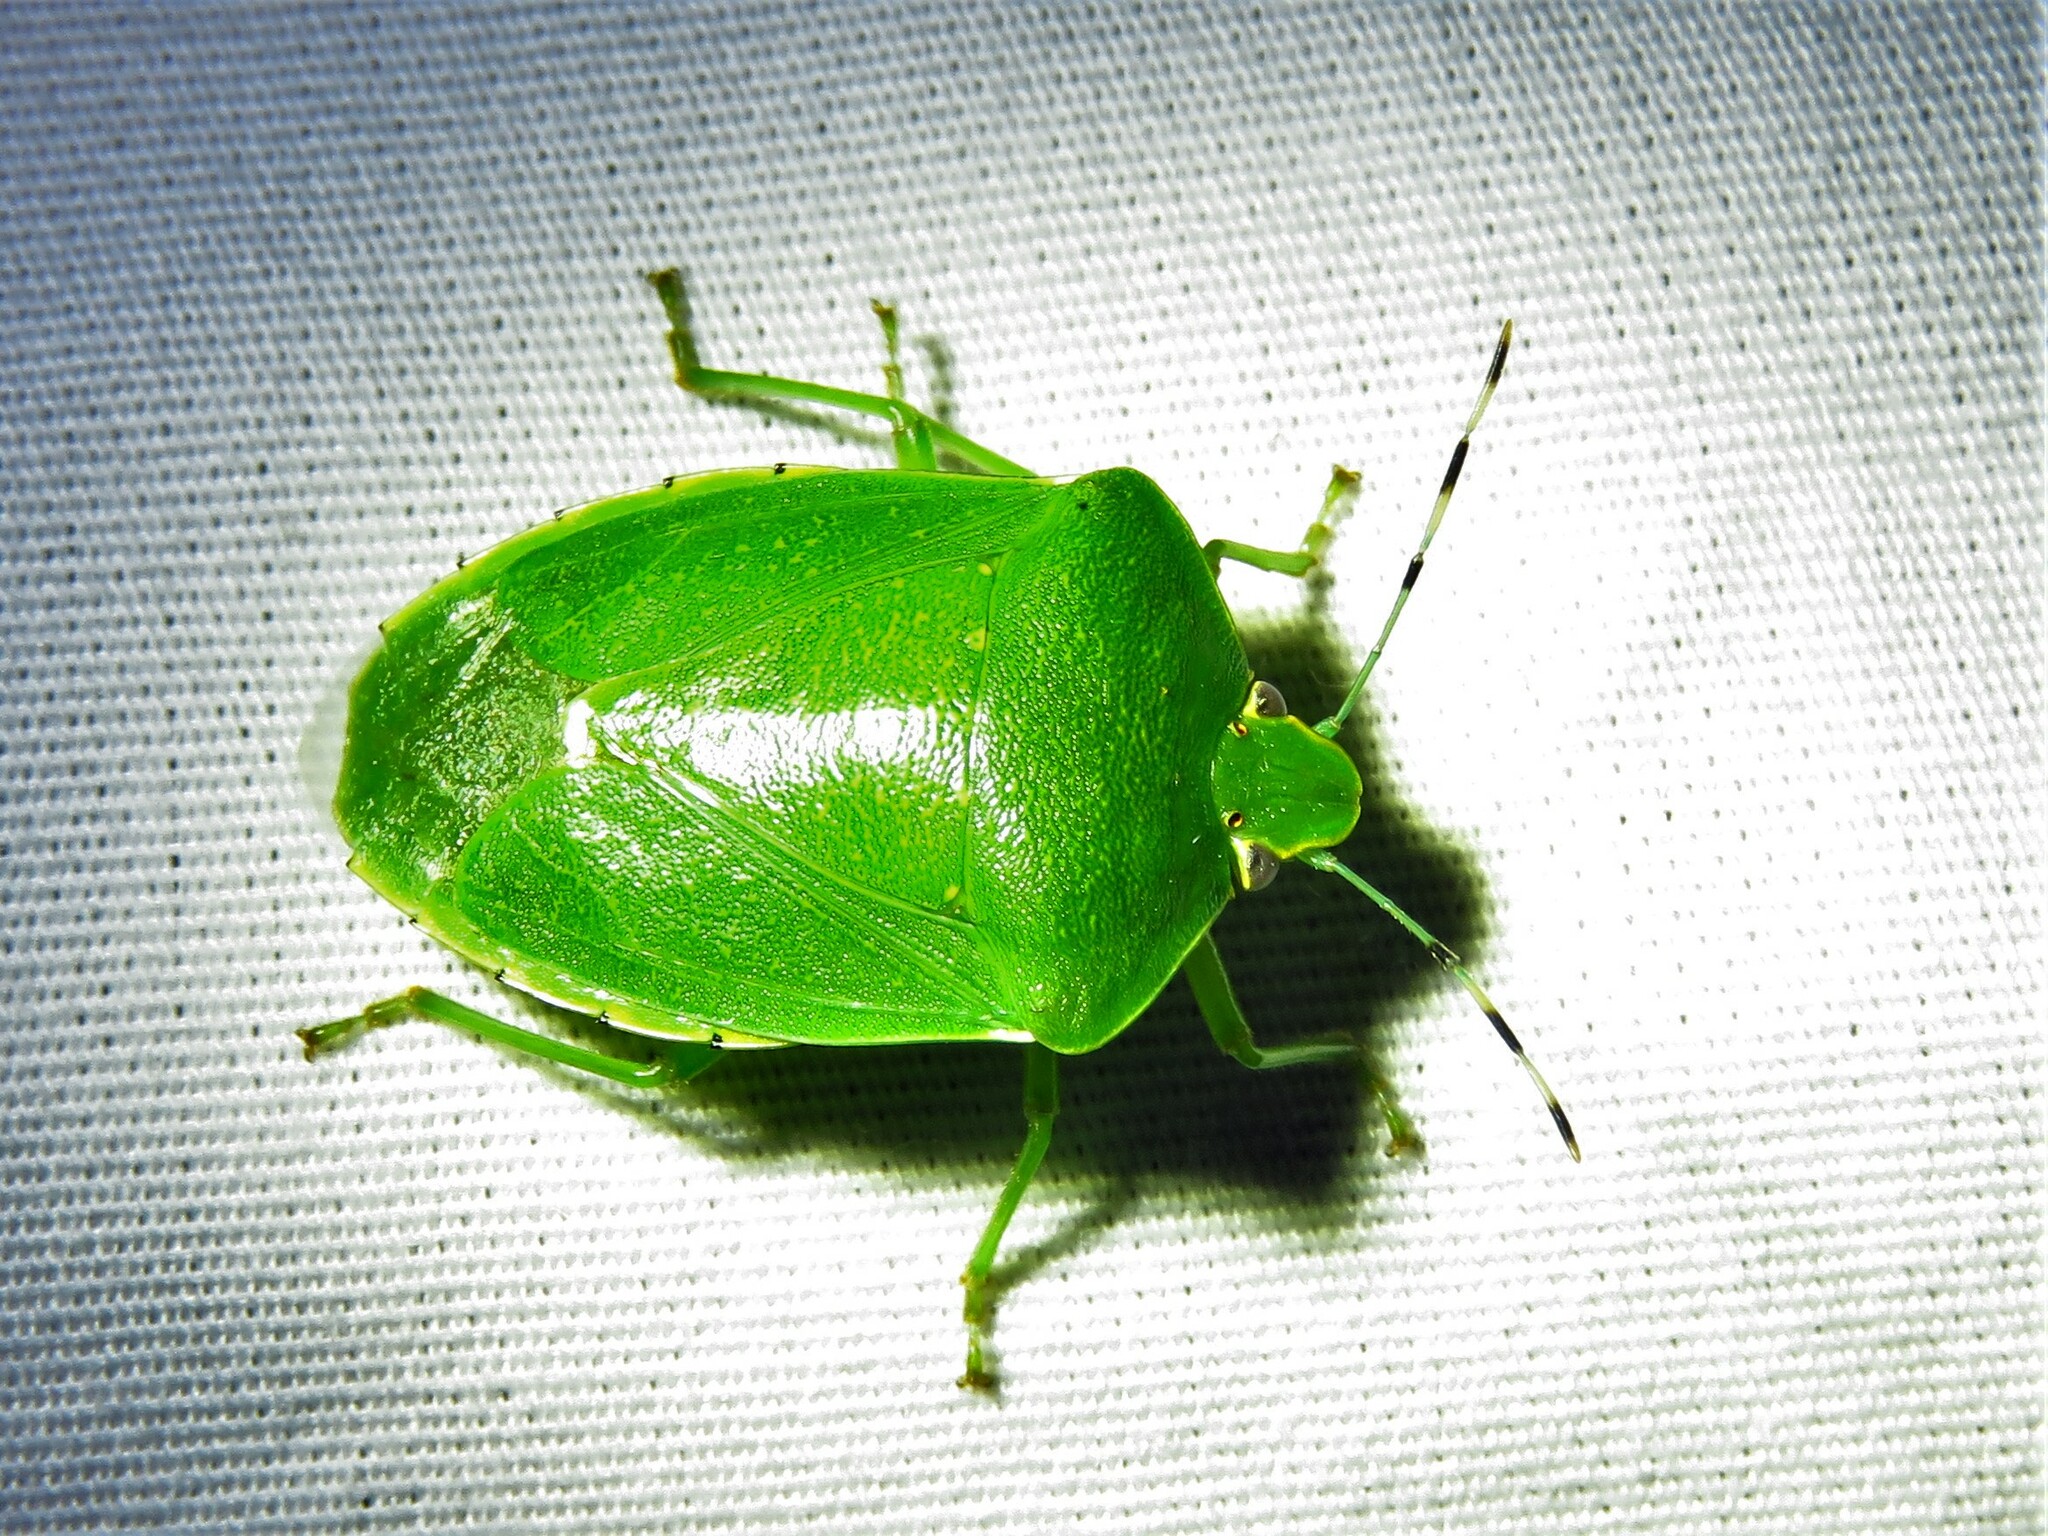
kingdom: Animalia
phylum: Arthropoda
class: Insecta
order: Hemiptera
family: Pentatomidae
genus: Chinavia
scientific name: Chinavia hilaris
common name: Green stink bug
